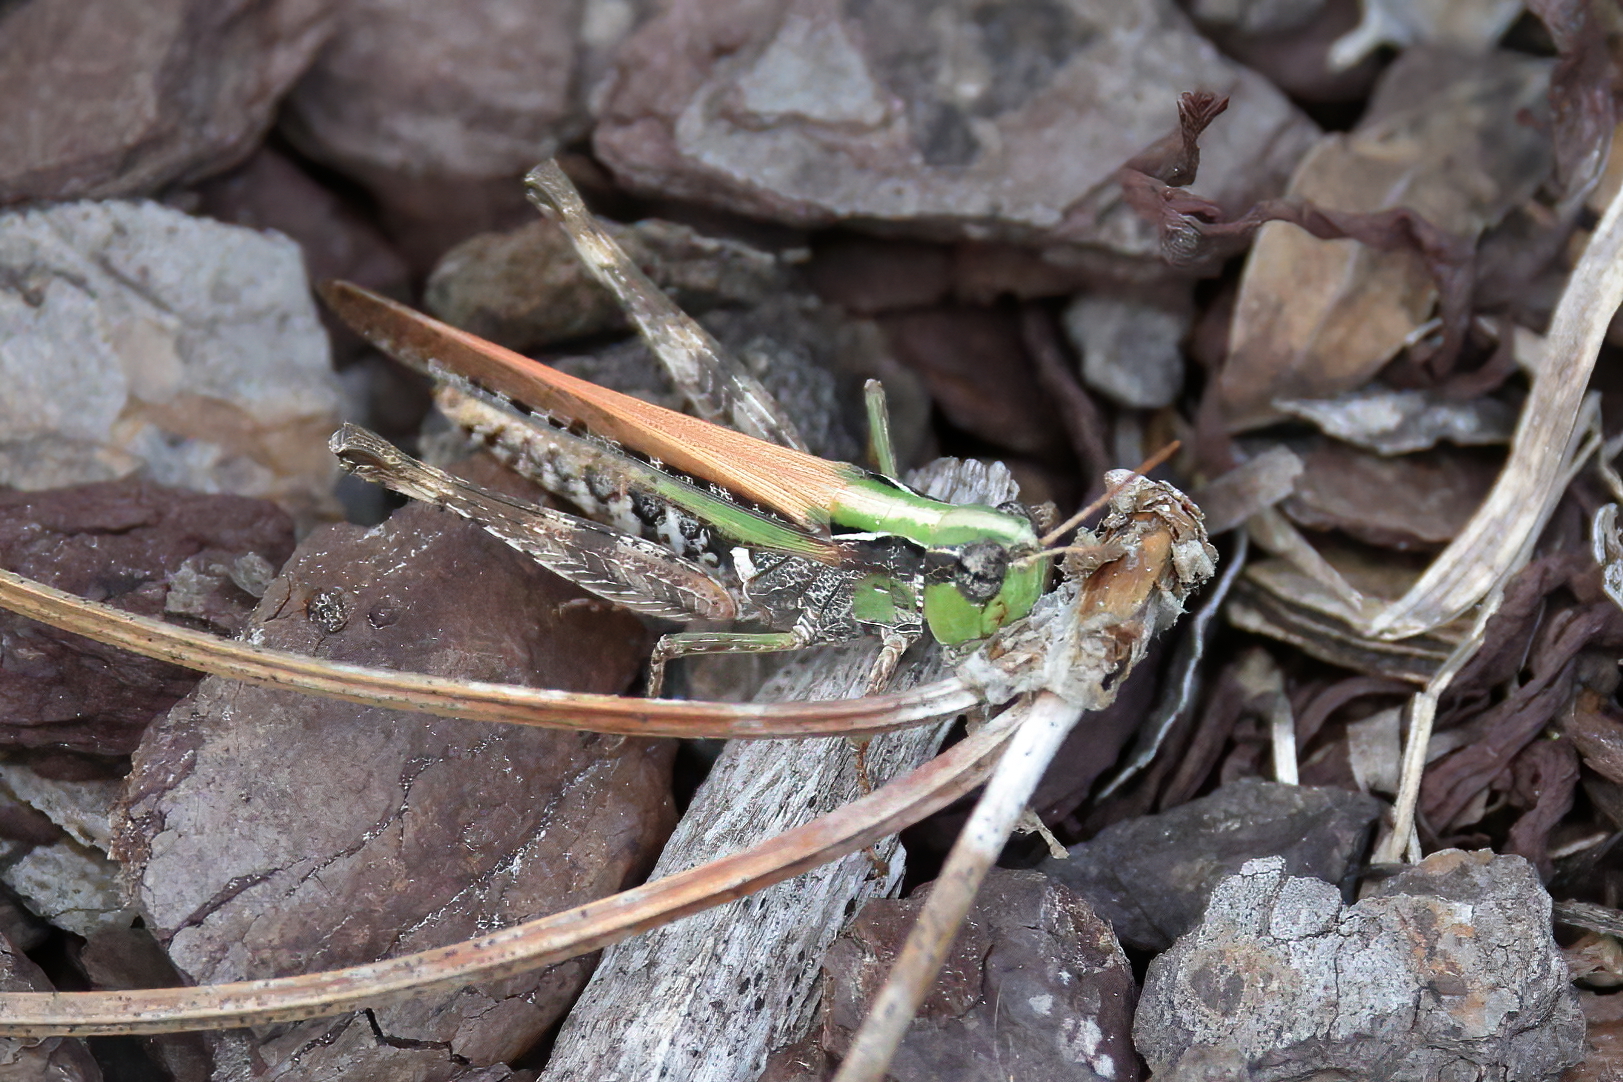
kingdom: Animalia
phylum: Arthropoda
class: Insecta
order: Orthoptera
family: Acrididae
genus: Orphulella
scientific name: Orphulella pelidna
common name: Spotted-wing grasshopper
